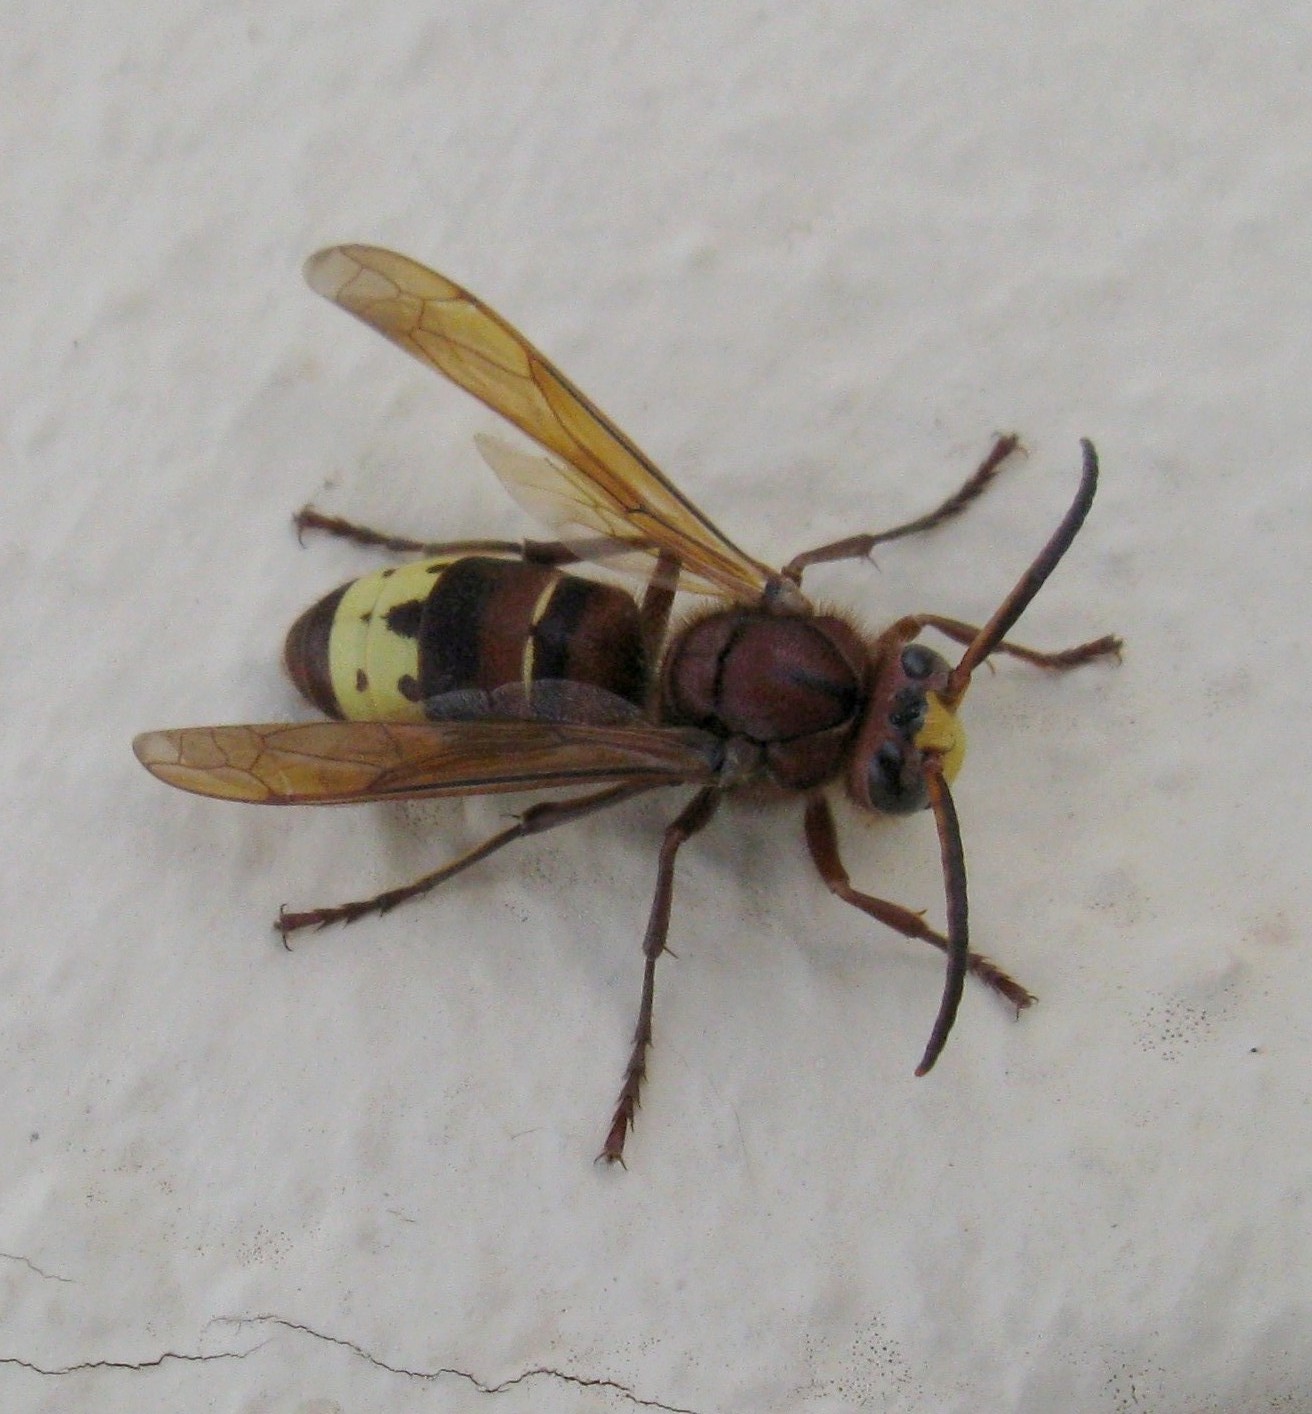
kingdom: Animalia
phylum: Arthropoda
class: Insecta
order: Hymenoptera
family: Vespidae
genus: Vespa
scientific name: Vespa orientalis
